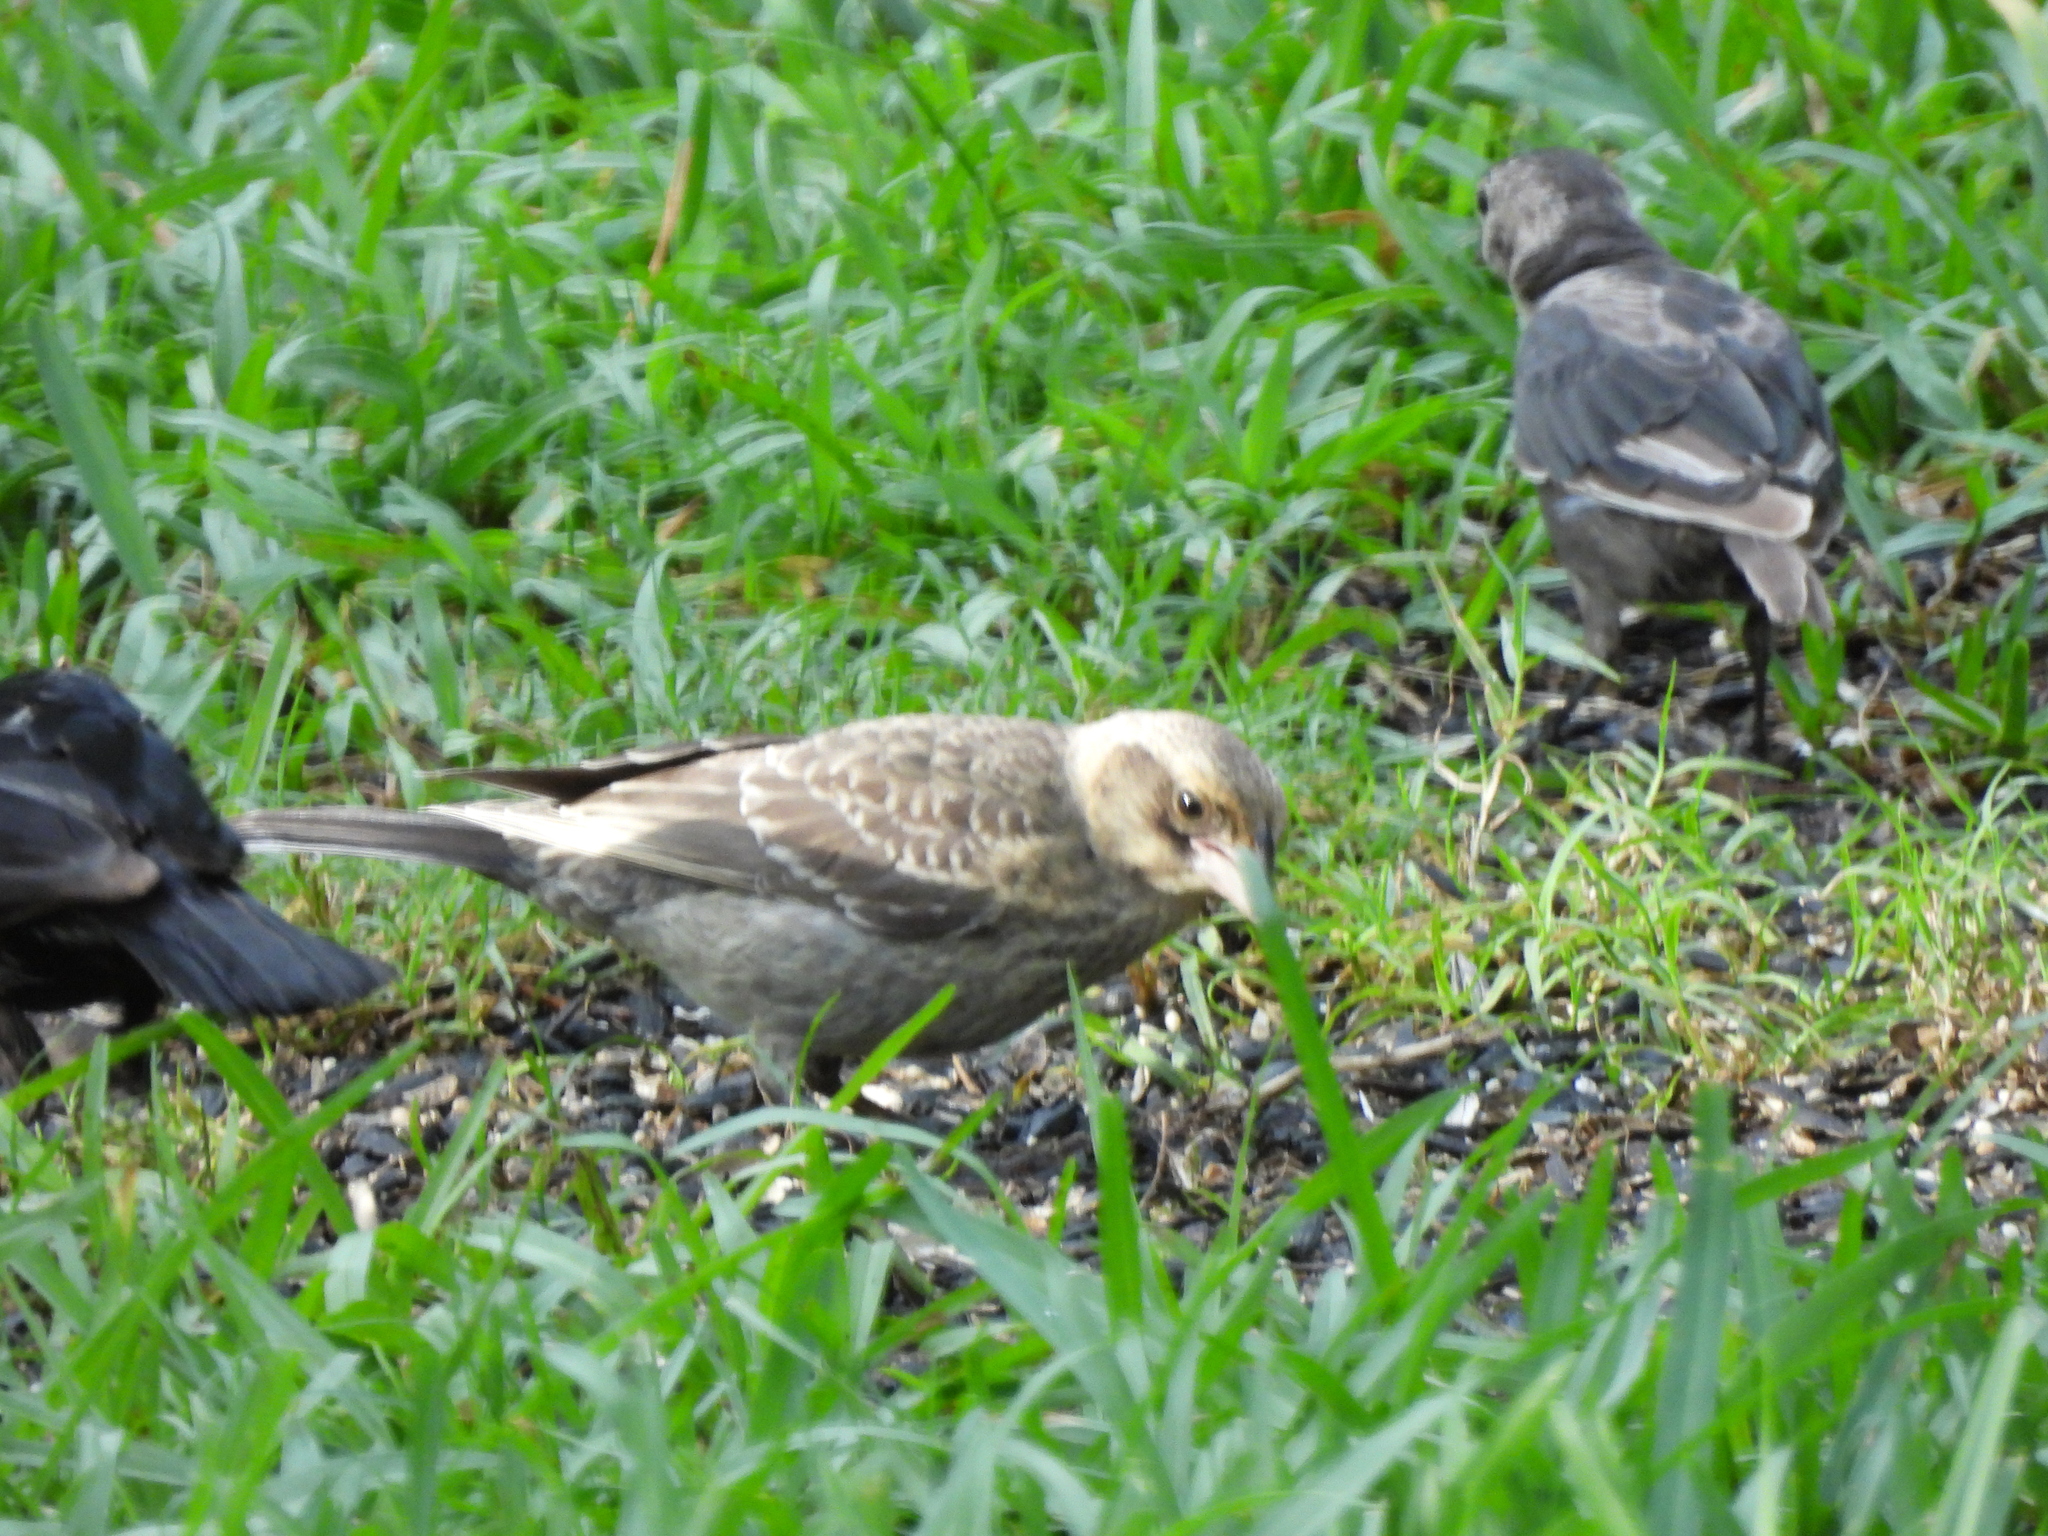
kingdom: Animalia
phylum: Chordata
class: Aves
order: Passeriformes
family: Icteridae
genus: Molothrus
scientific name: Molothrus ater
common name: Brown-headed cowbird
